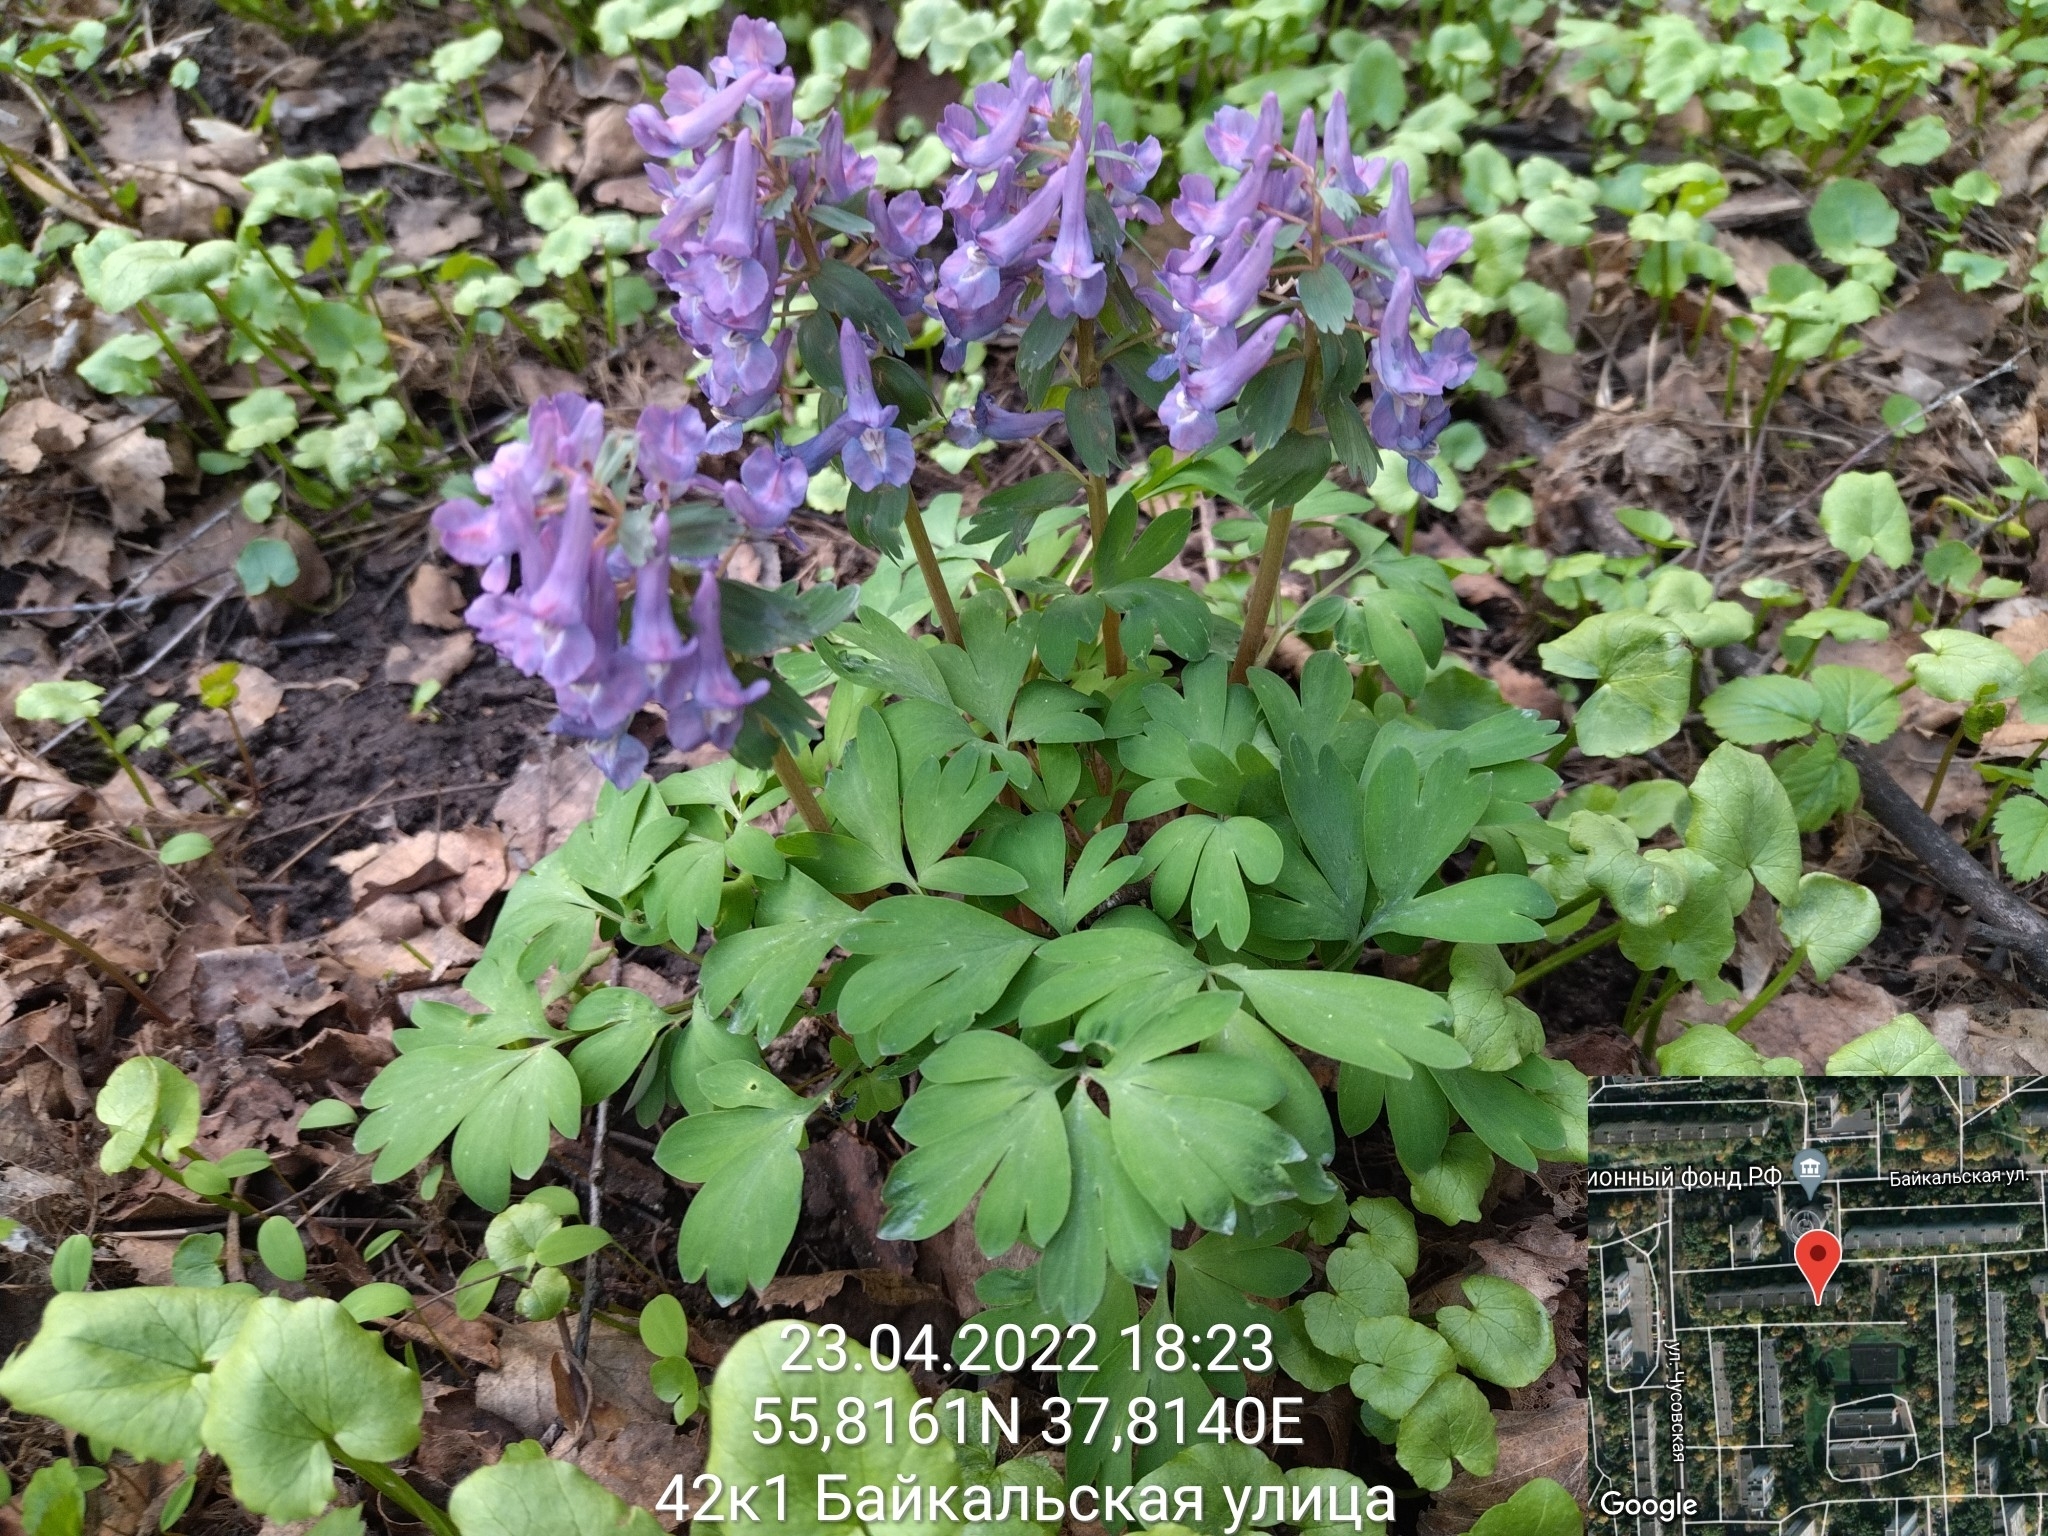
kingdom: Plantae
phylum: Tracheophyta
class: Magnoliopsida
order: Ranunculales
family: Papaveraceae
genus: Corydalis
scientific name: Corydalis solida
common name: Bird-in-a-bush
